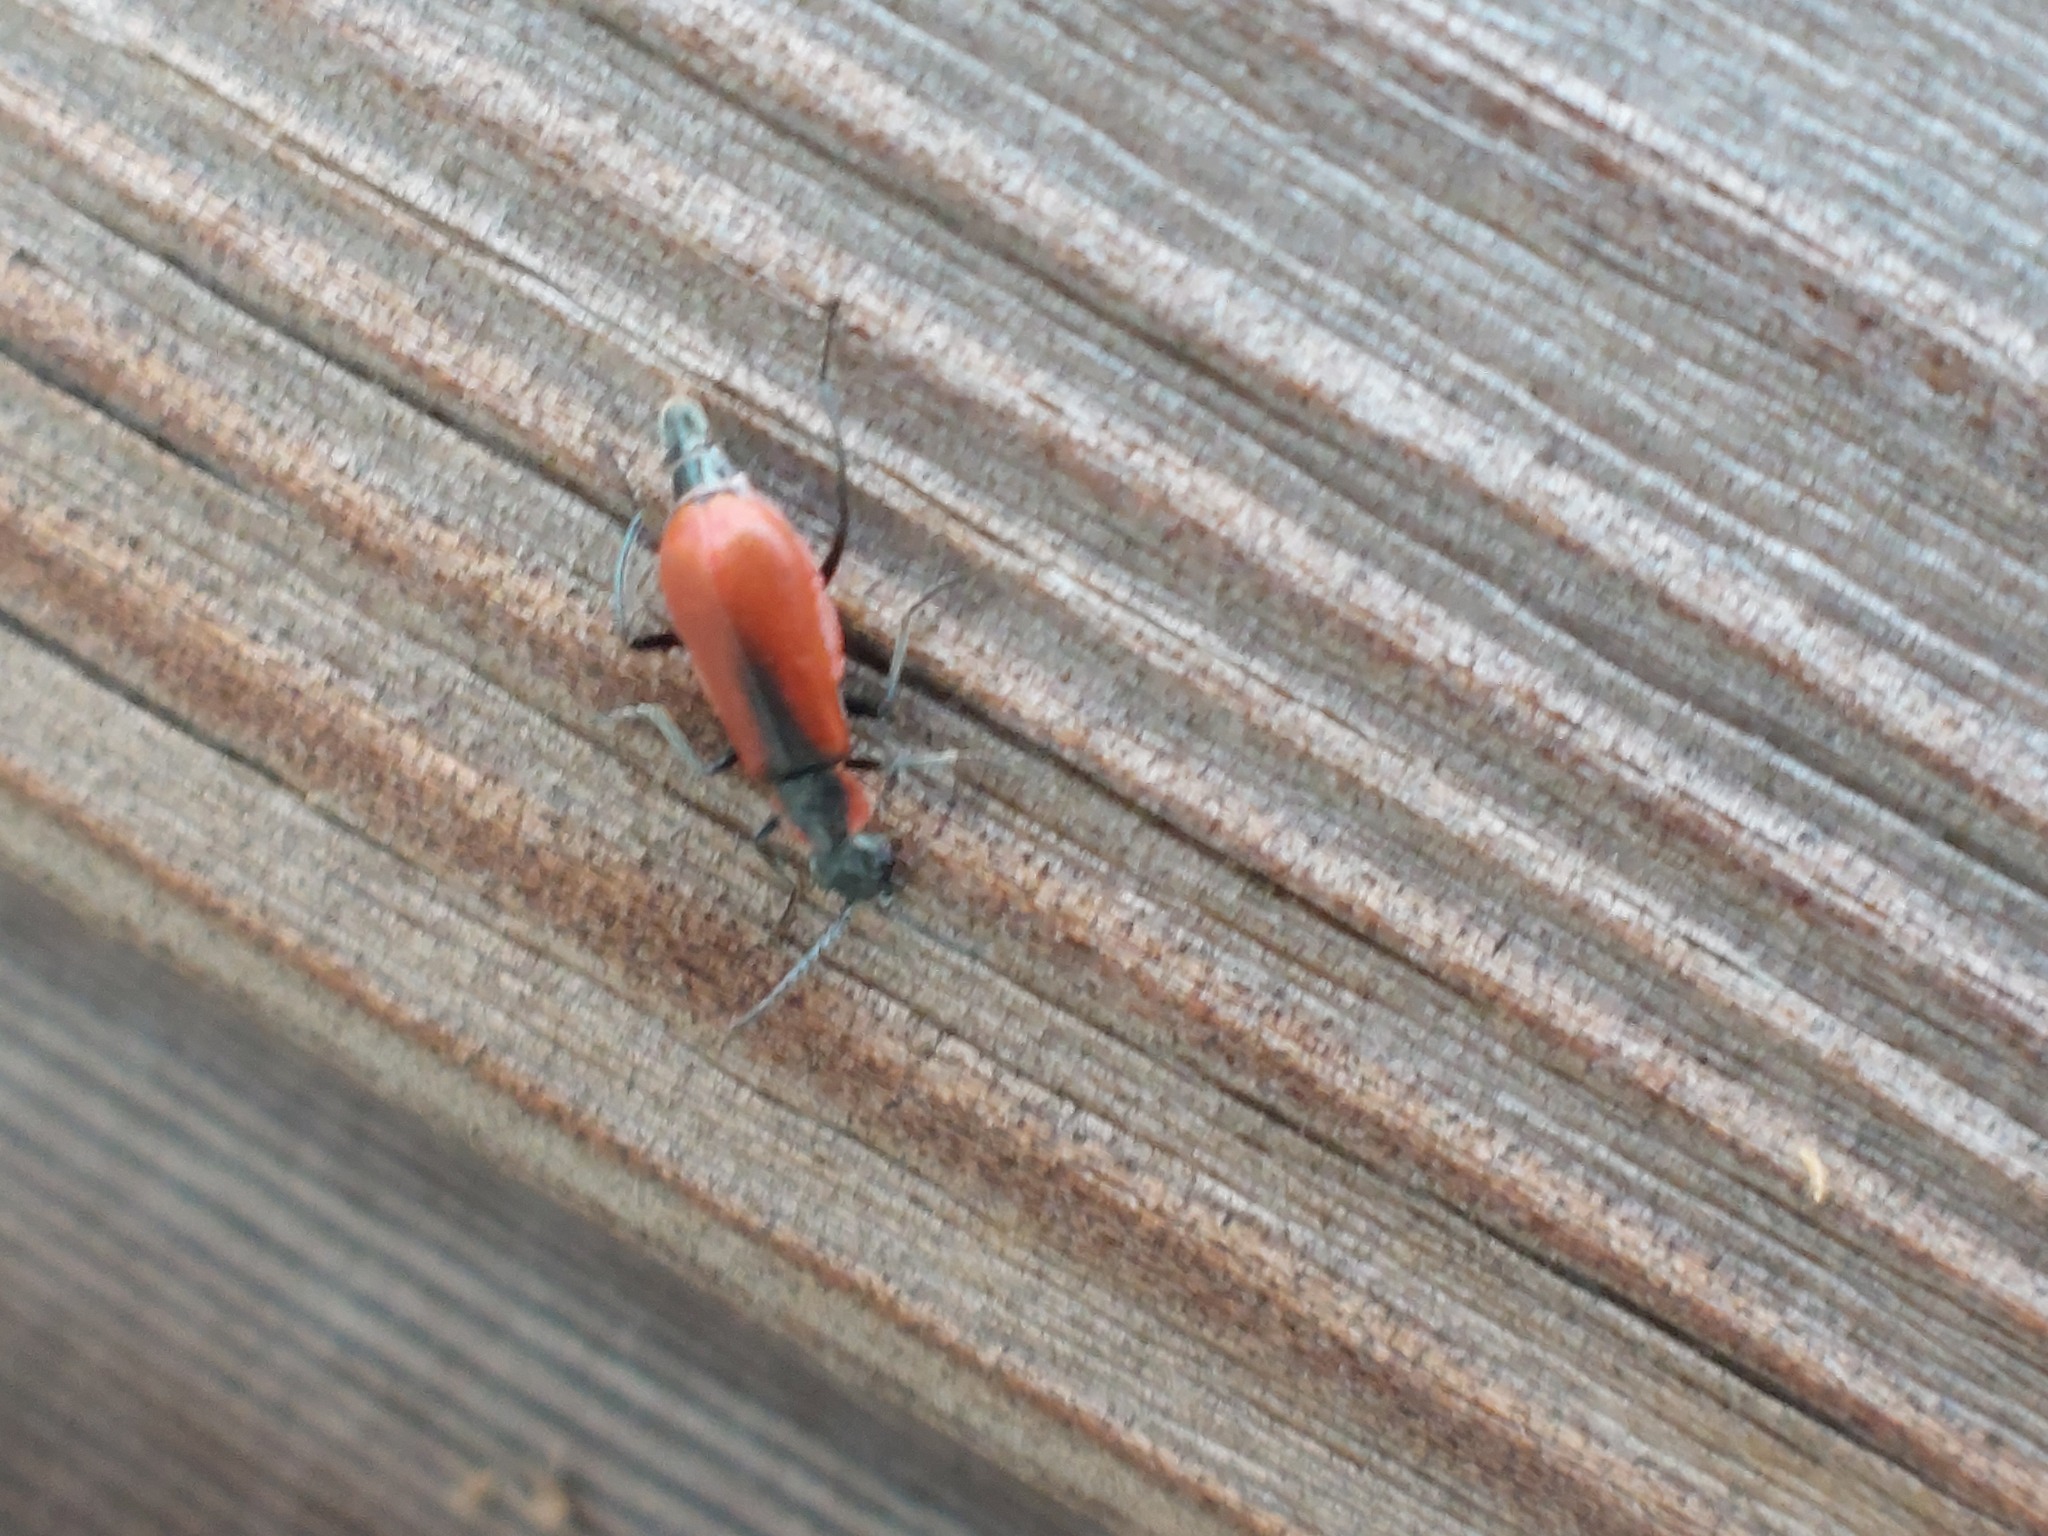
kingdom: Animalia
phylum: Arthropoda
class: Insecta
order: Coleoptera
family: Melyridae
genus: Anthocomus
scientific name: Anthocomus rufus
